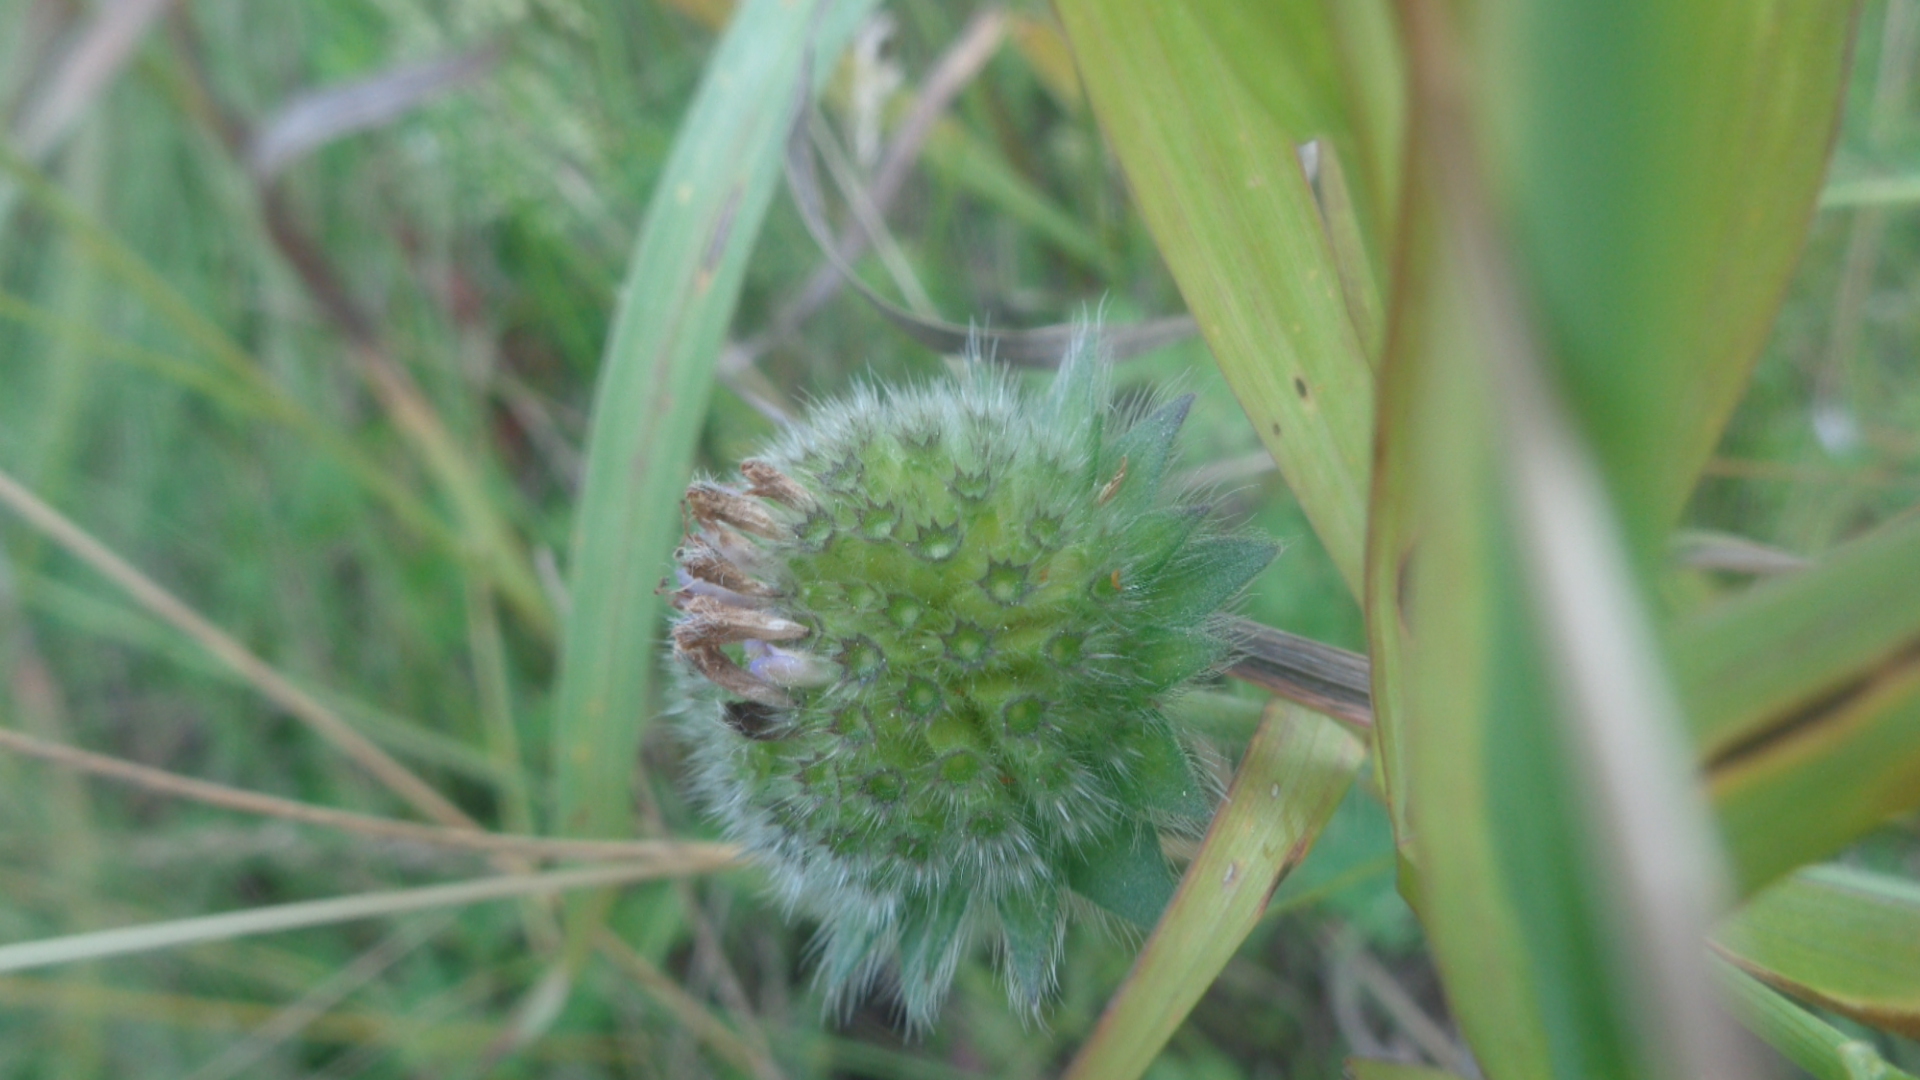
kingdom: Plantae
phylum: Tracheophyta
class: Magnoliopsida
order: Dipsacales
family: Caprifoliaceae
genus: Knautia
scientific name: Knautia arvensis
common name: Field scabiosa
